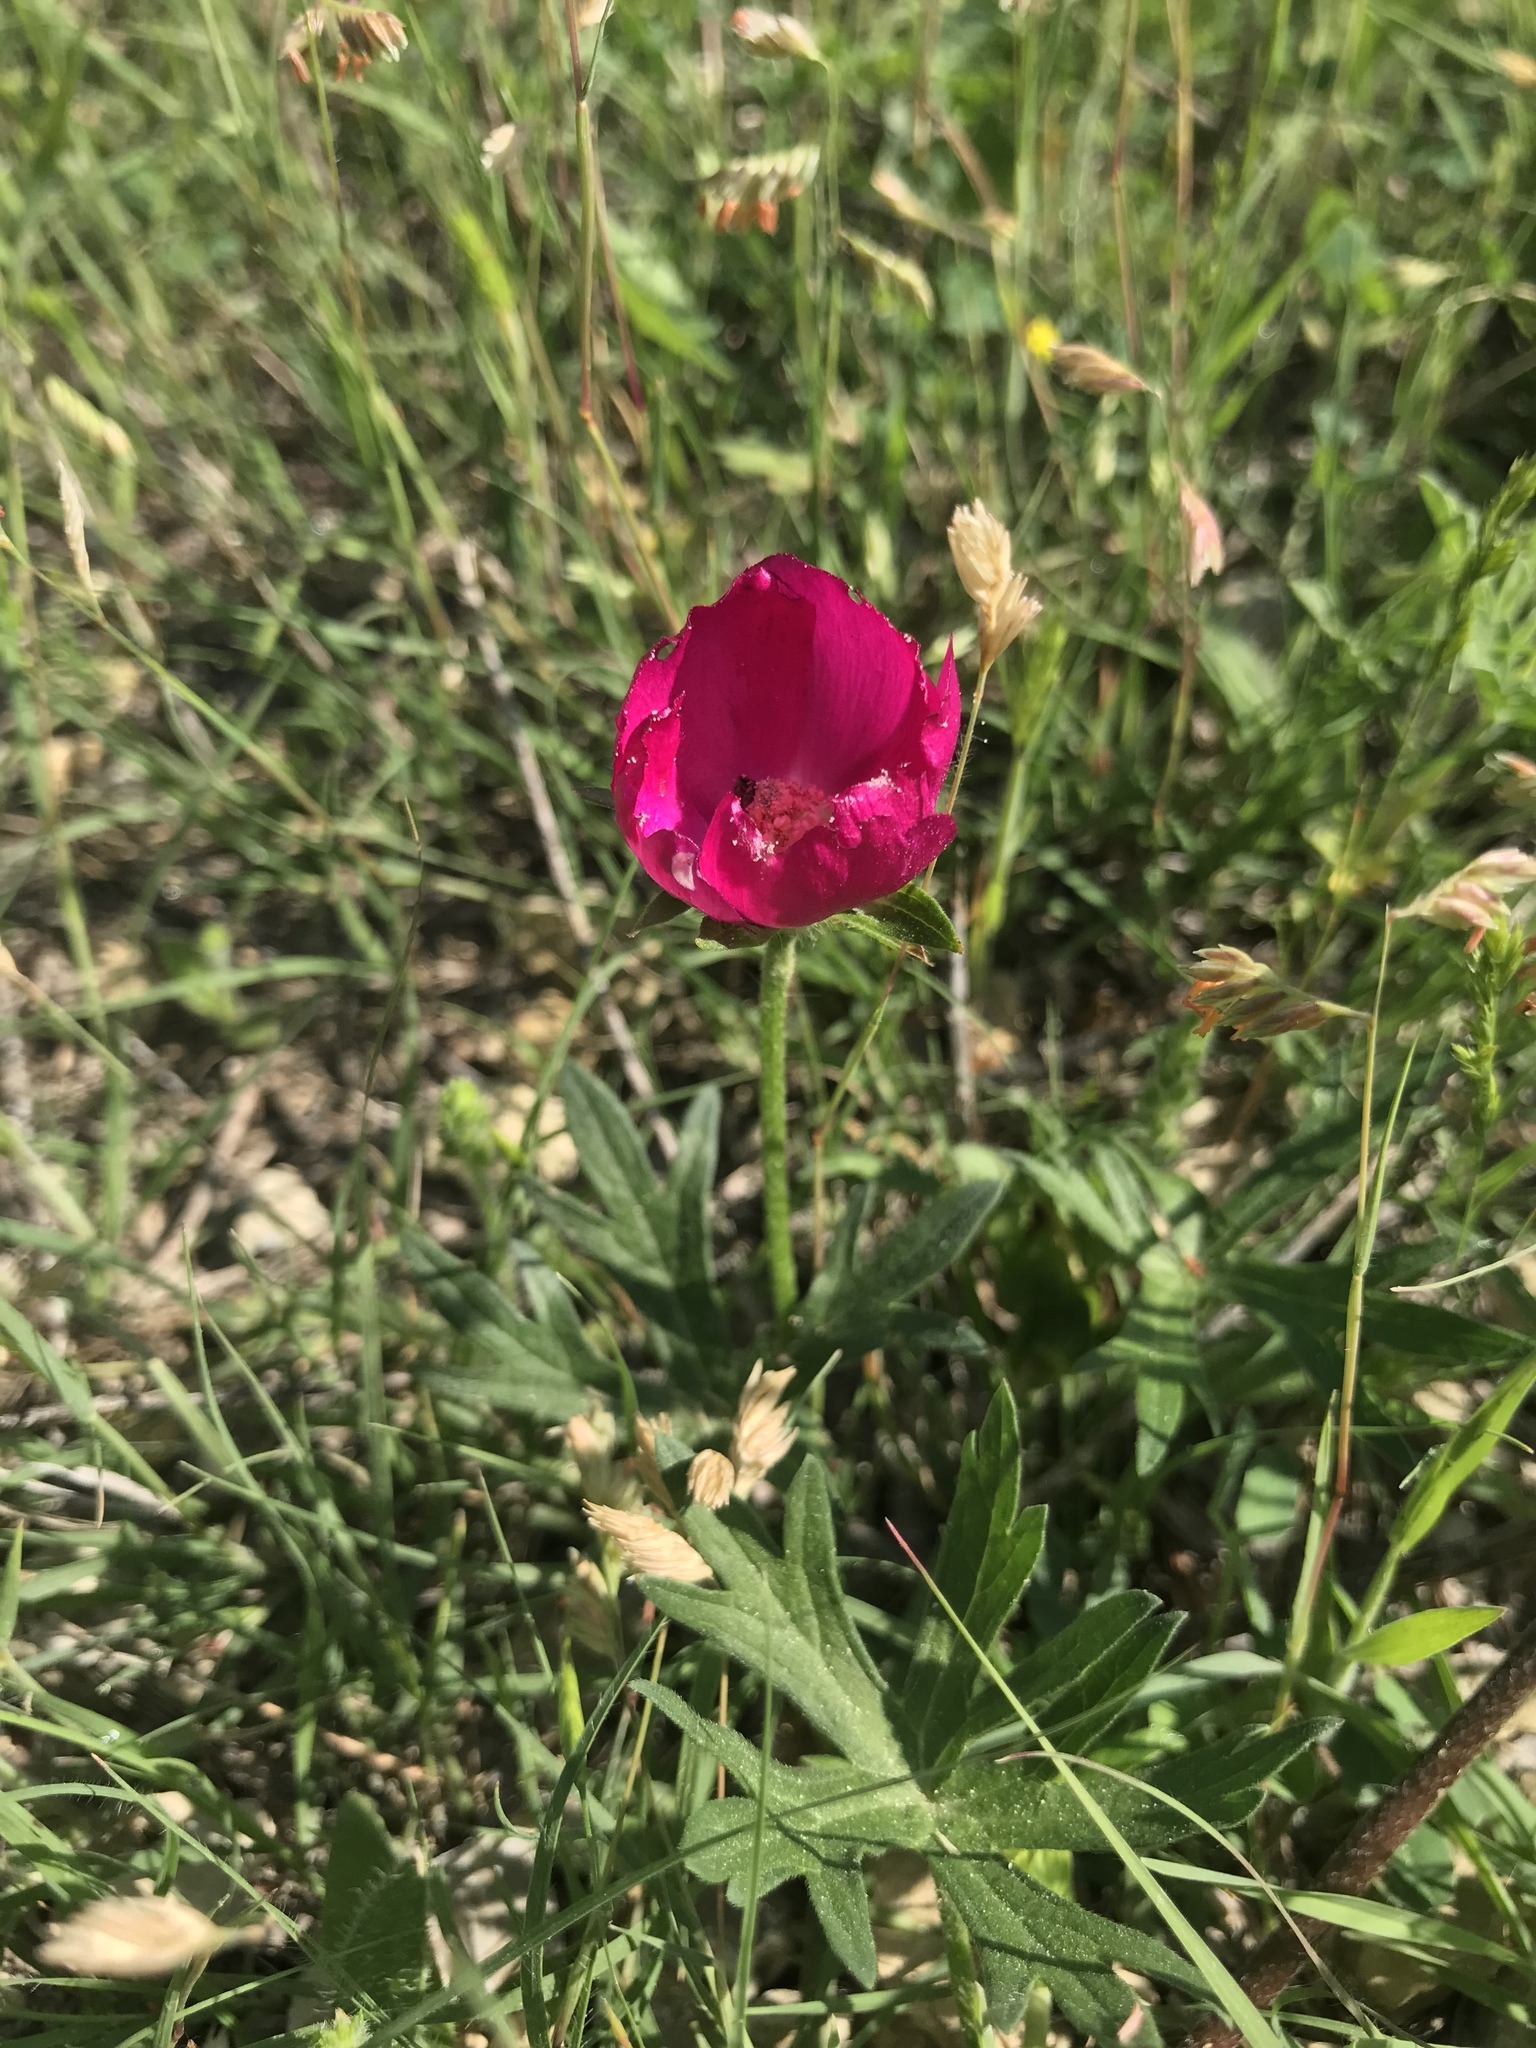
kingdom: Plantae
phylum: Tracheophyta
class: Magnoliopsida
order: Malvales
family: Malvaceae
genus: Callirhoe
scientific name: Callirhoe involucrata
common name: Purple poppy-mallow
